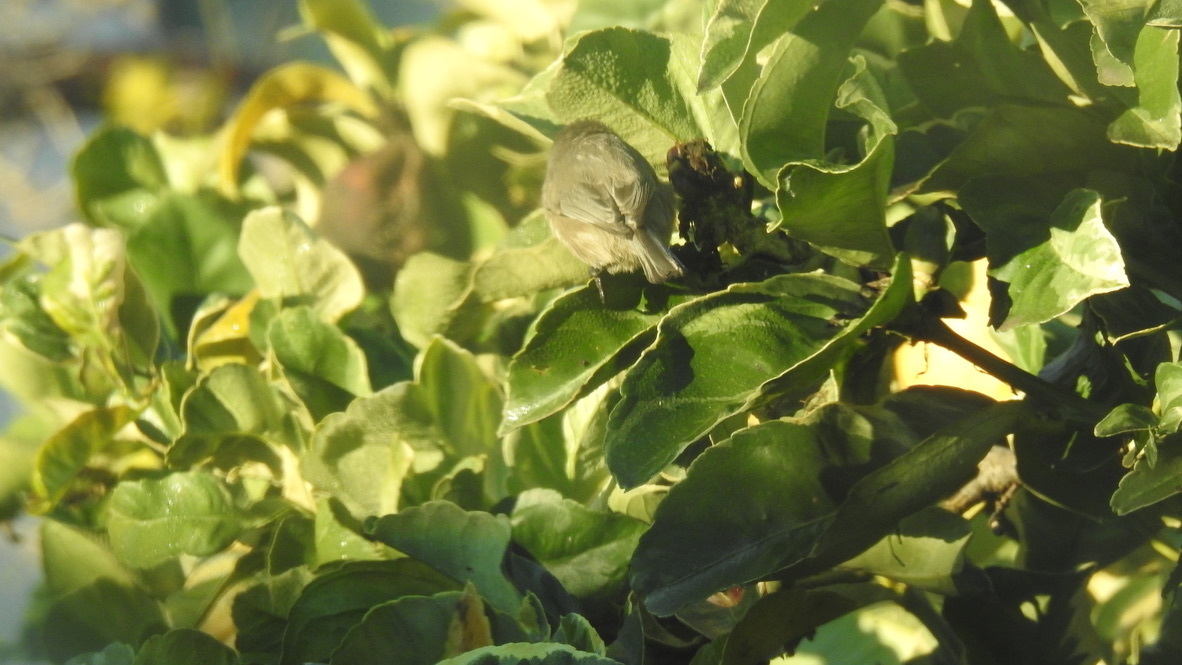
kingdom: Animalia
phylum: Chordata
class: Aves
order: Passeriformes
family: Aegithalidae
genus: Psaltriparus
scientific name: Psaltriparus minimus
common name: American bushtit
